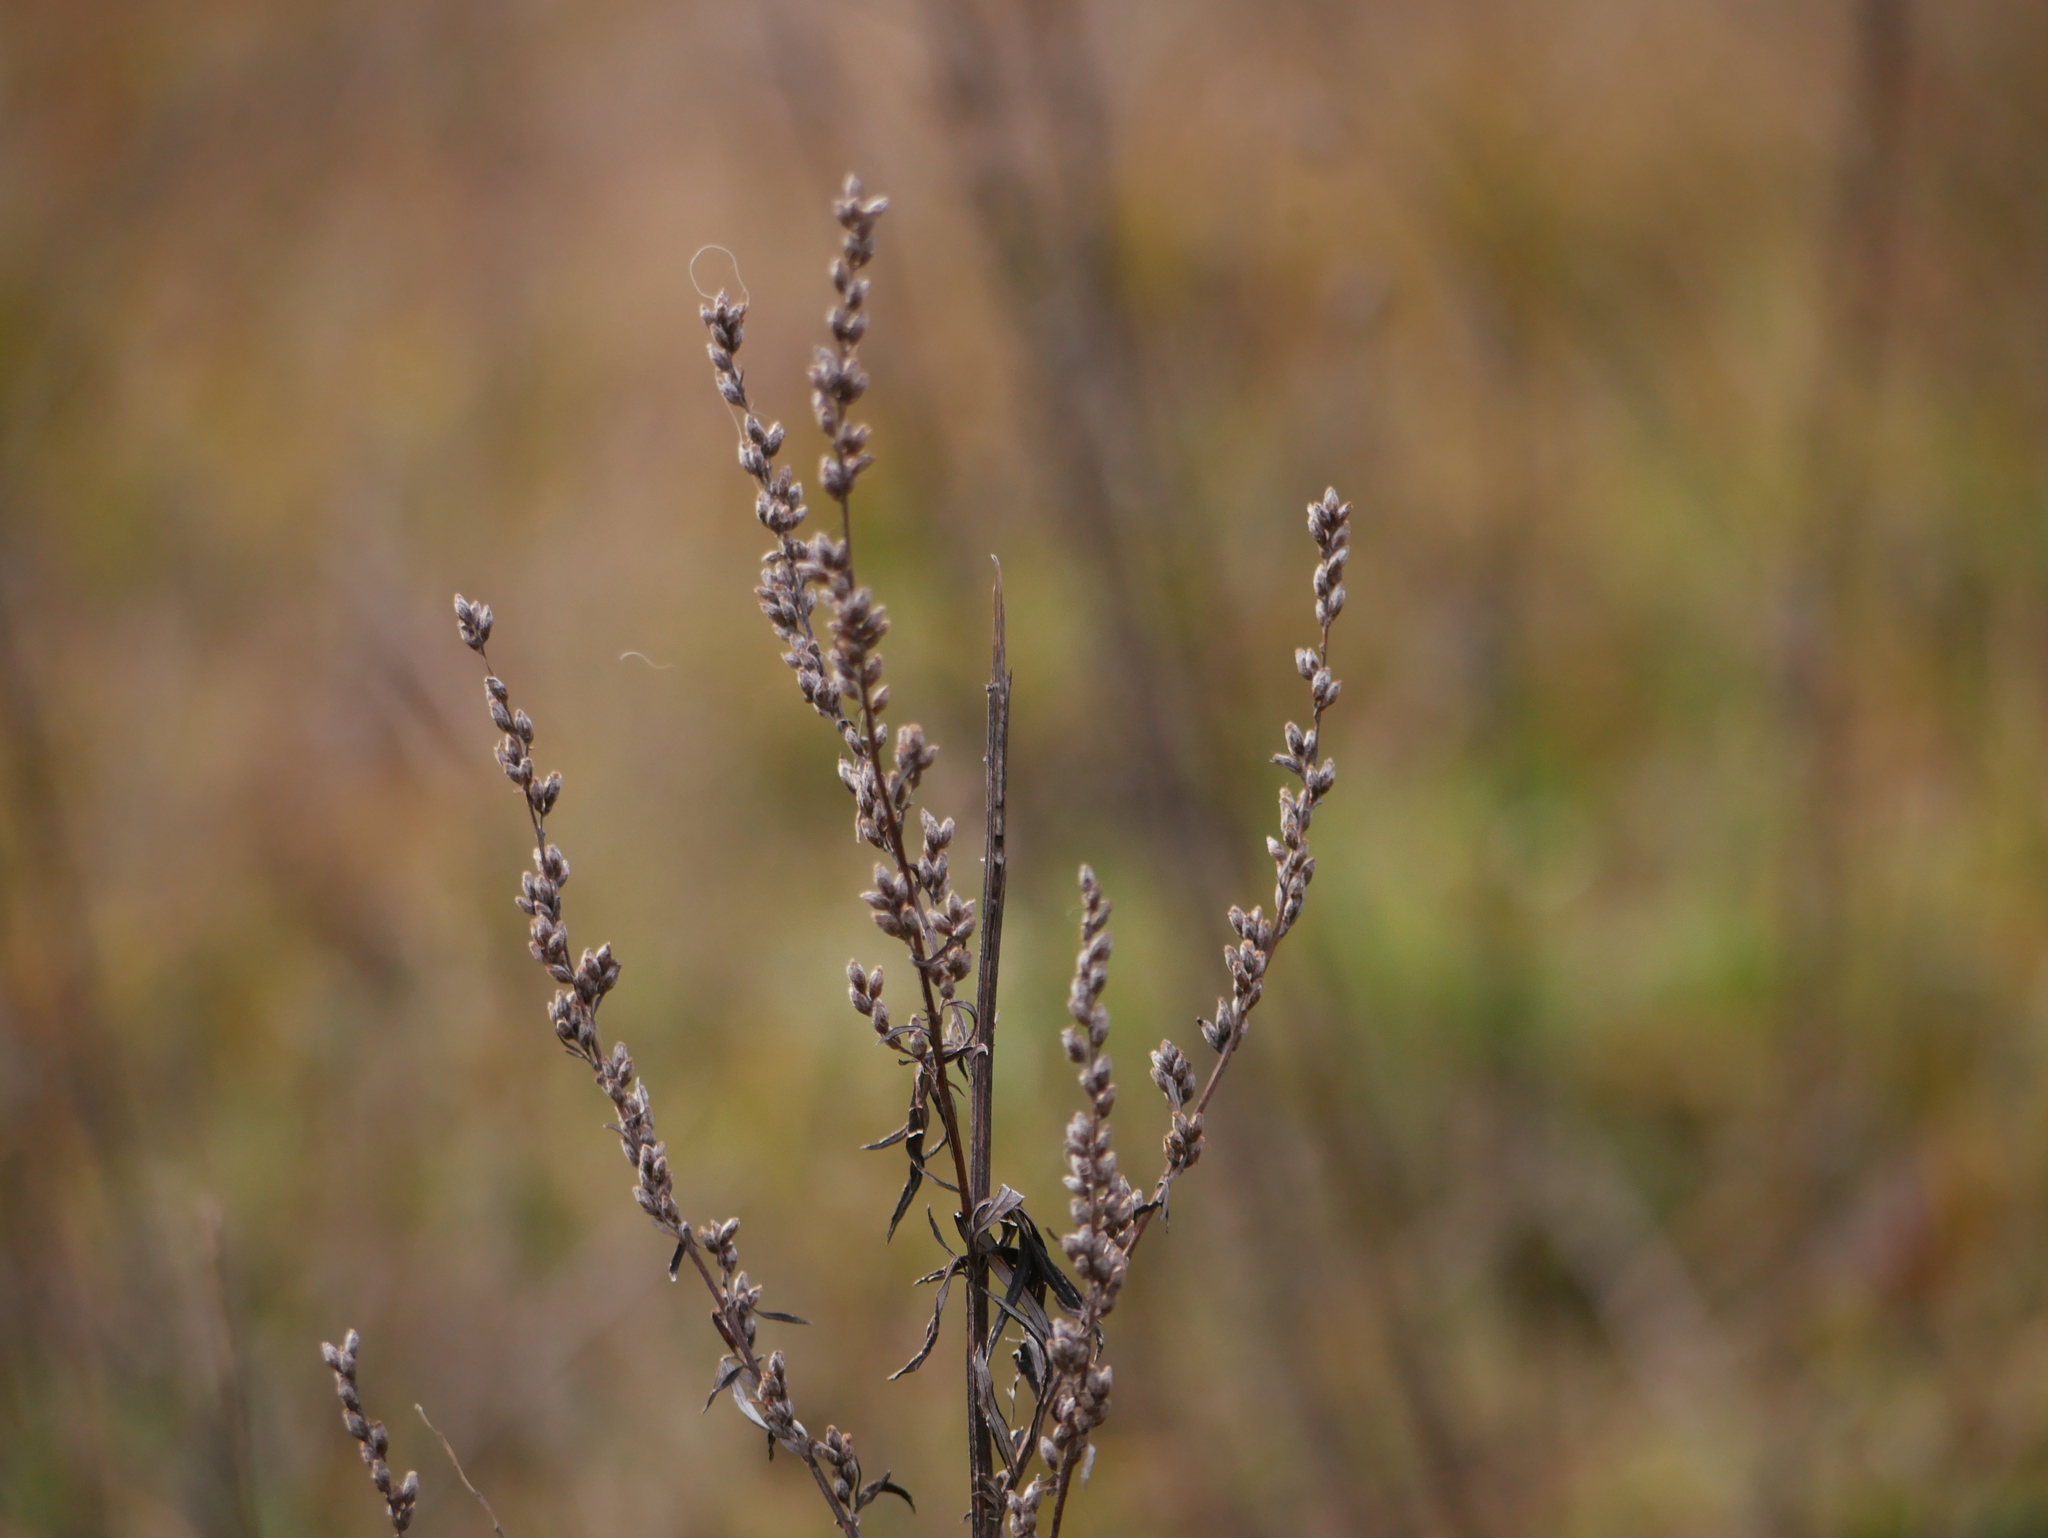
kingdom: Plantae
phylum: Tracheophyta
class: Magnoliopsida
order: Asterales
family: Asteraceae
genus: Artemisia
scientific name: Artemisia vulgaris
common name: Mugwort
